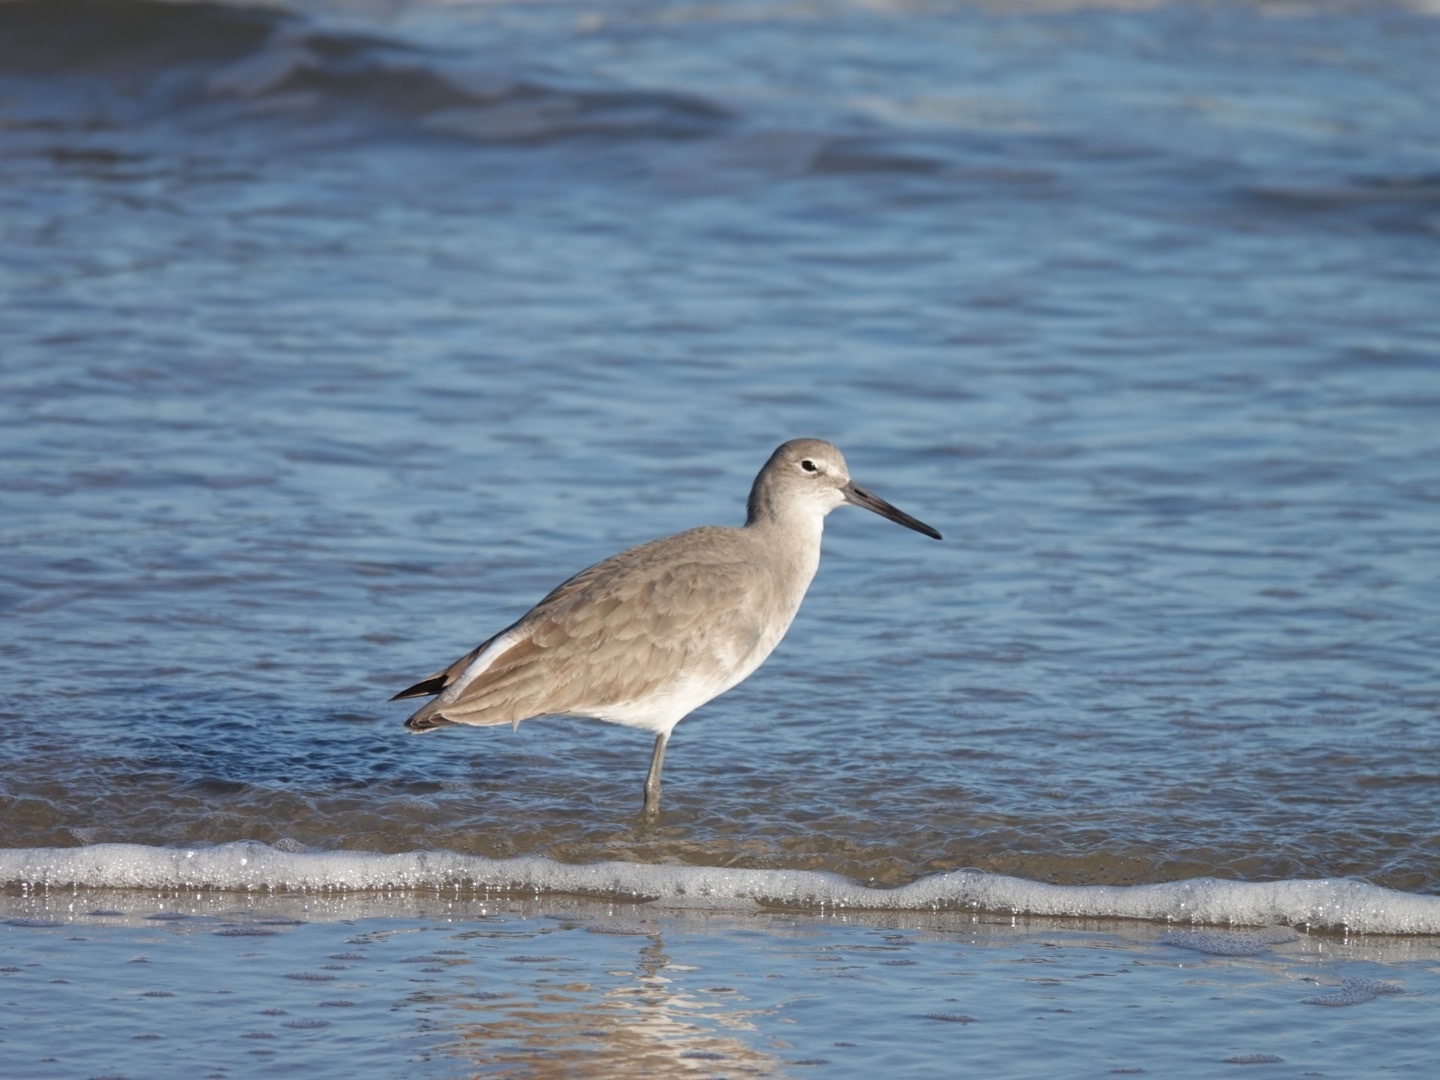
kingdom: Animalia
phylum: Chordata
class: Aves
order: Charadriiformes
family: Scolopacidae
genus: Tringa
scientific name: Tringa semipalmata
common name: Willet
